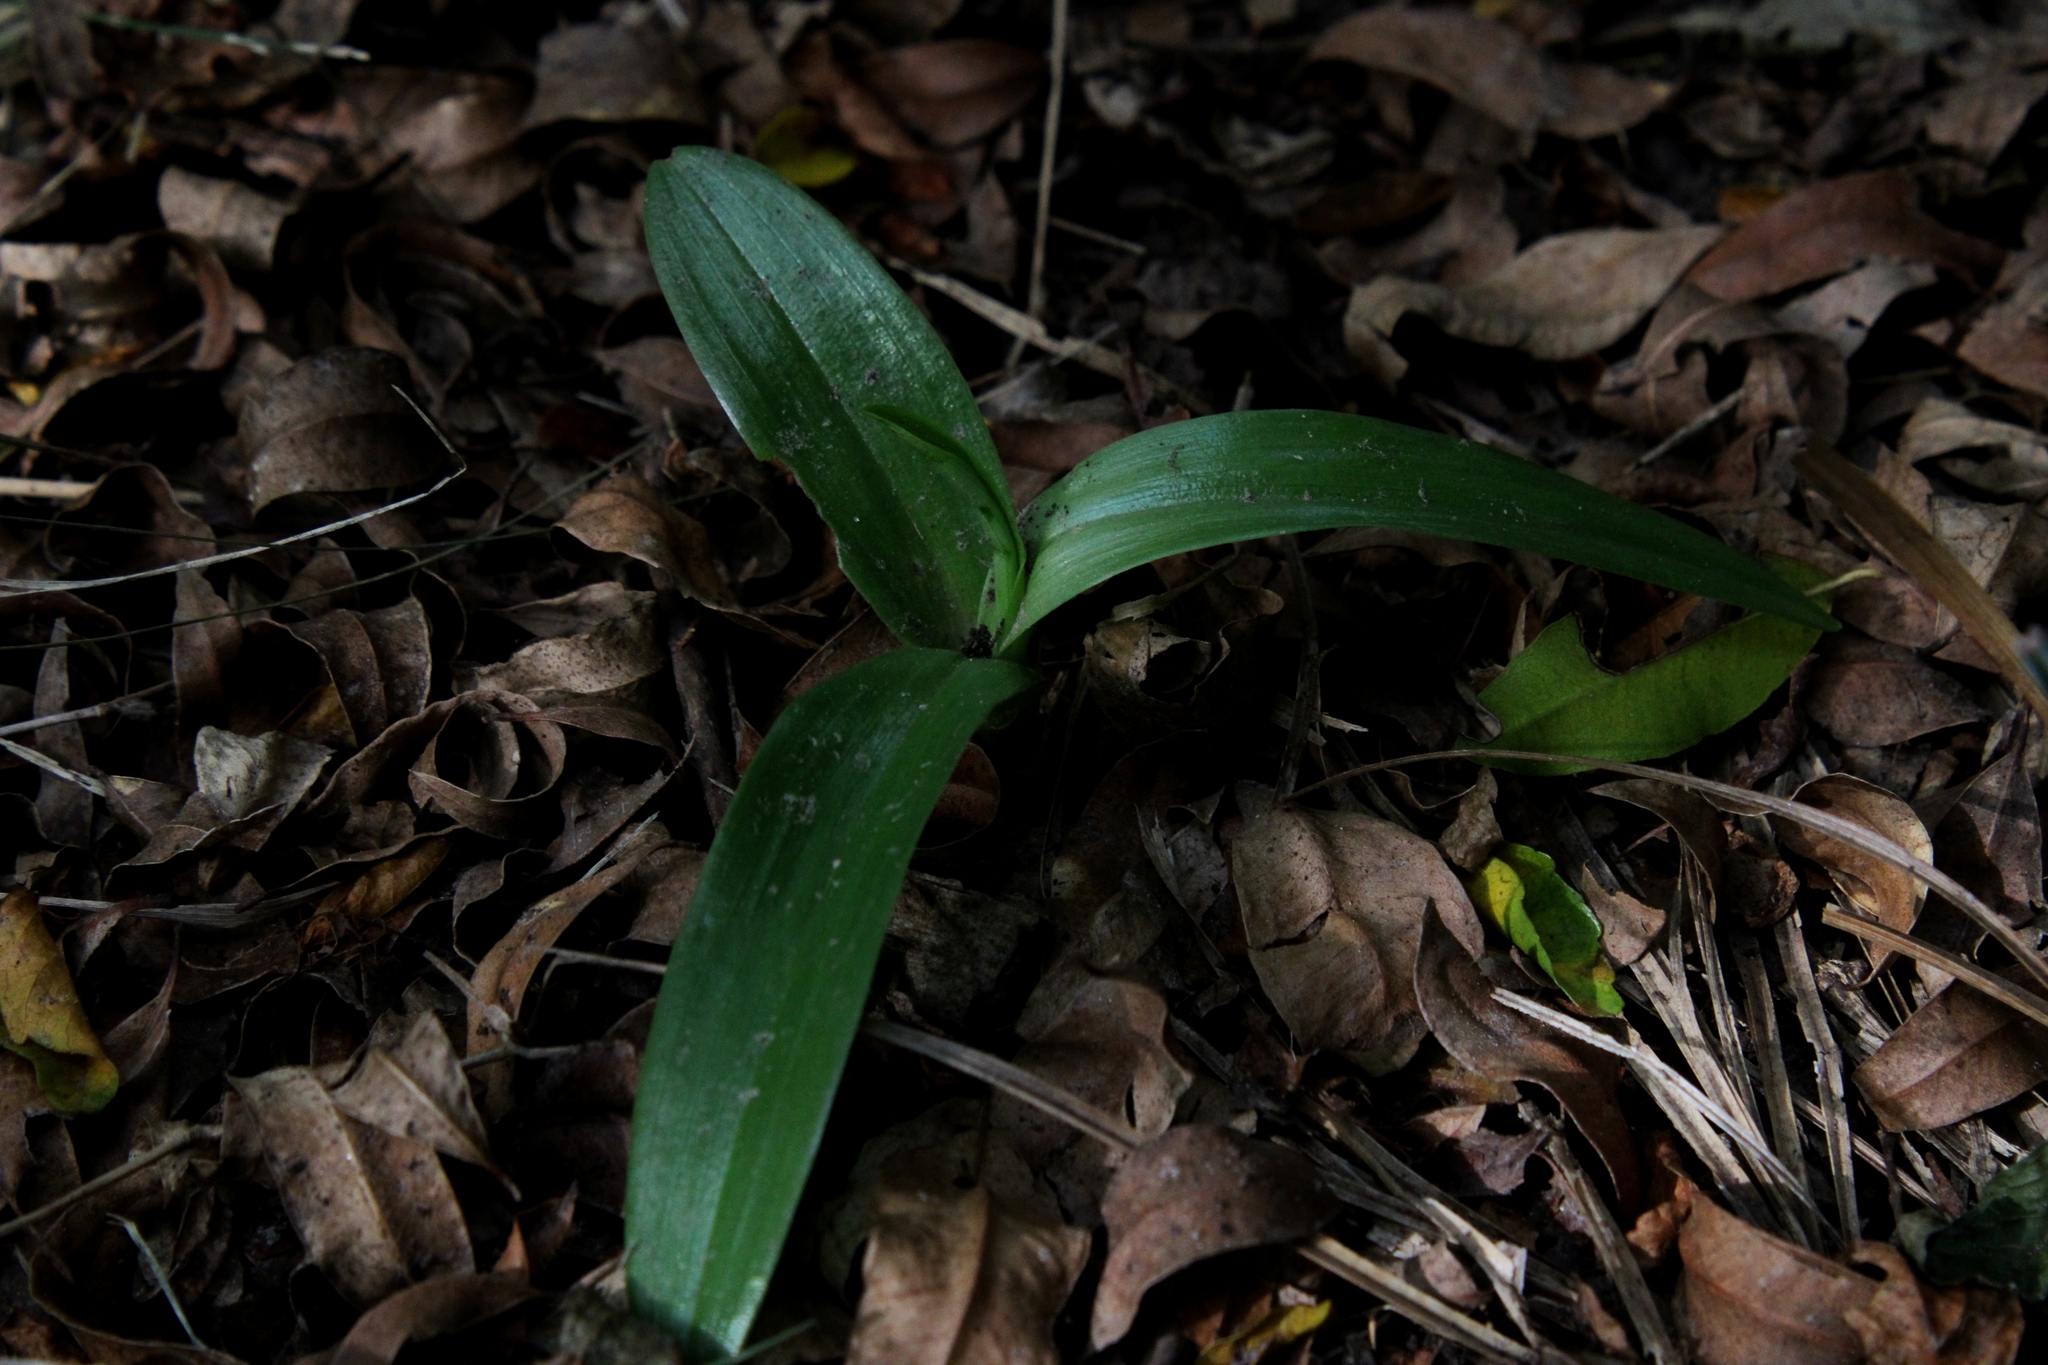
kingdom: Plantae
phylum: Tracheophyta
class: Liliopsida
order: Asparagales
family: Orchidaceae
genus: Chloraea
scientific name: Chloraea membranacea
